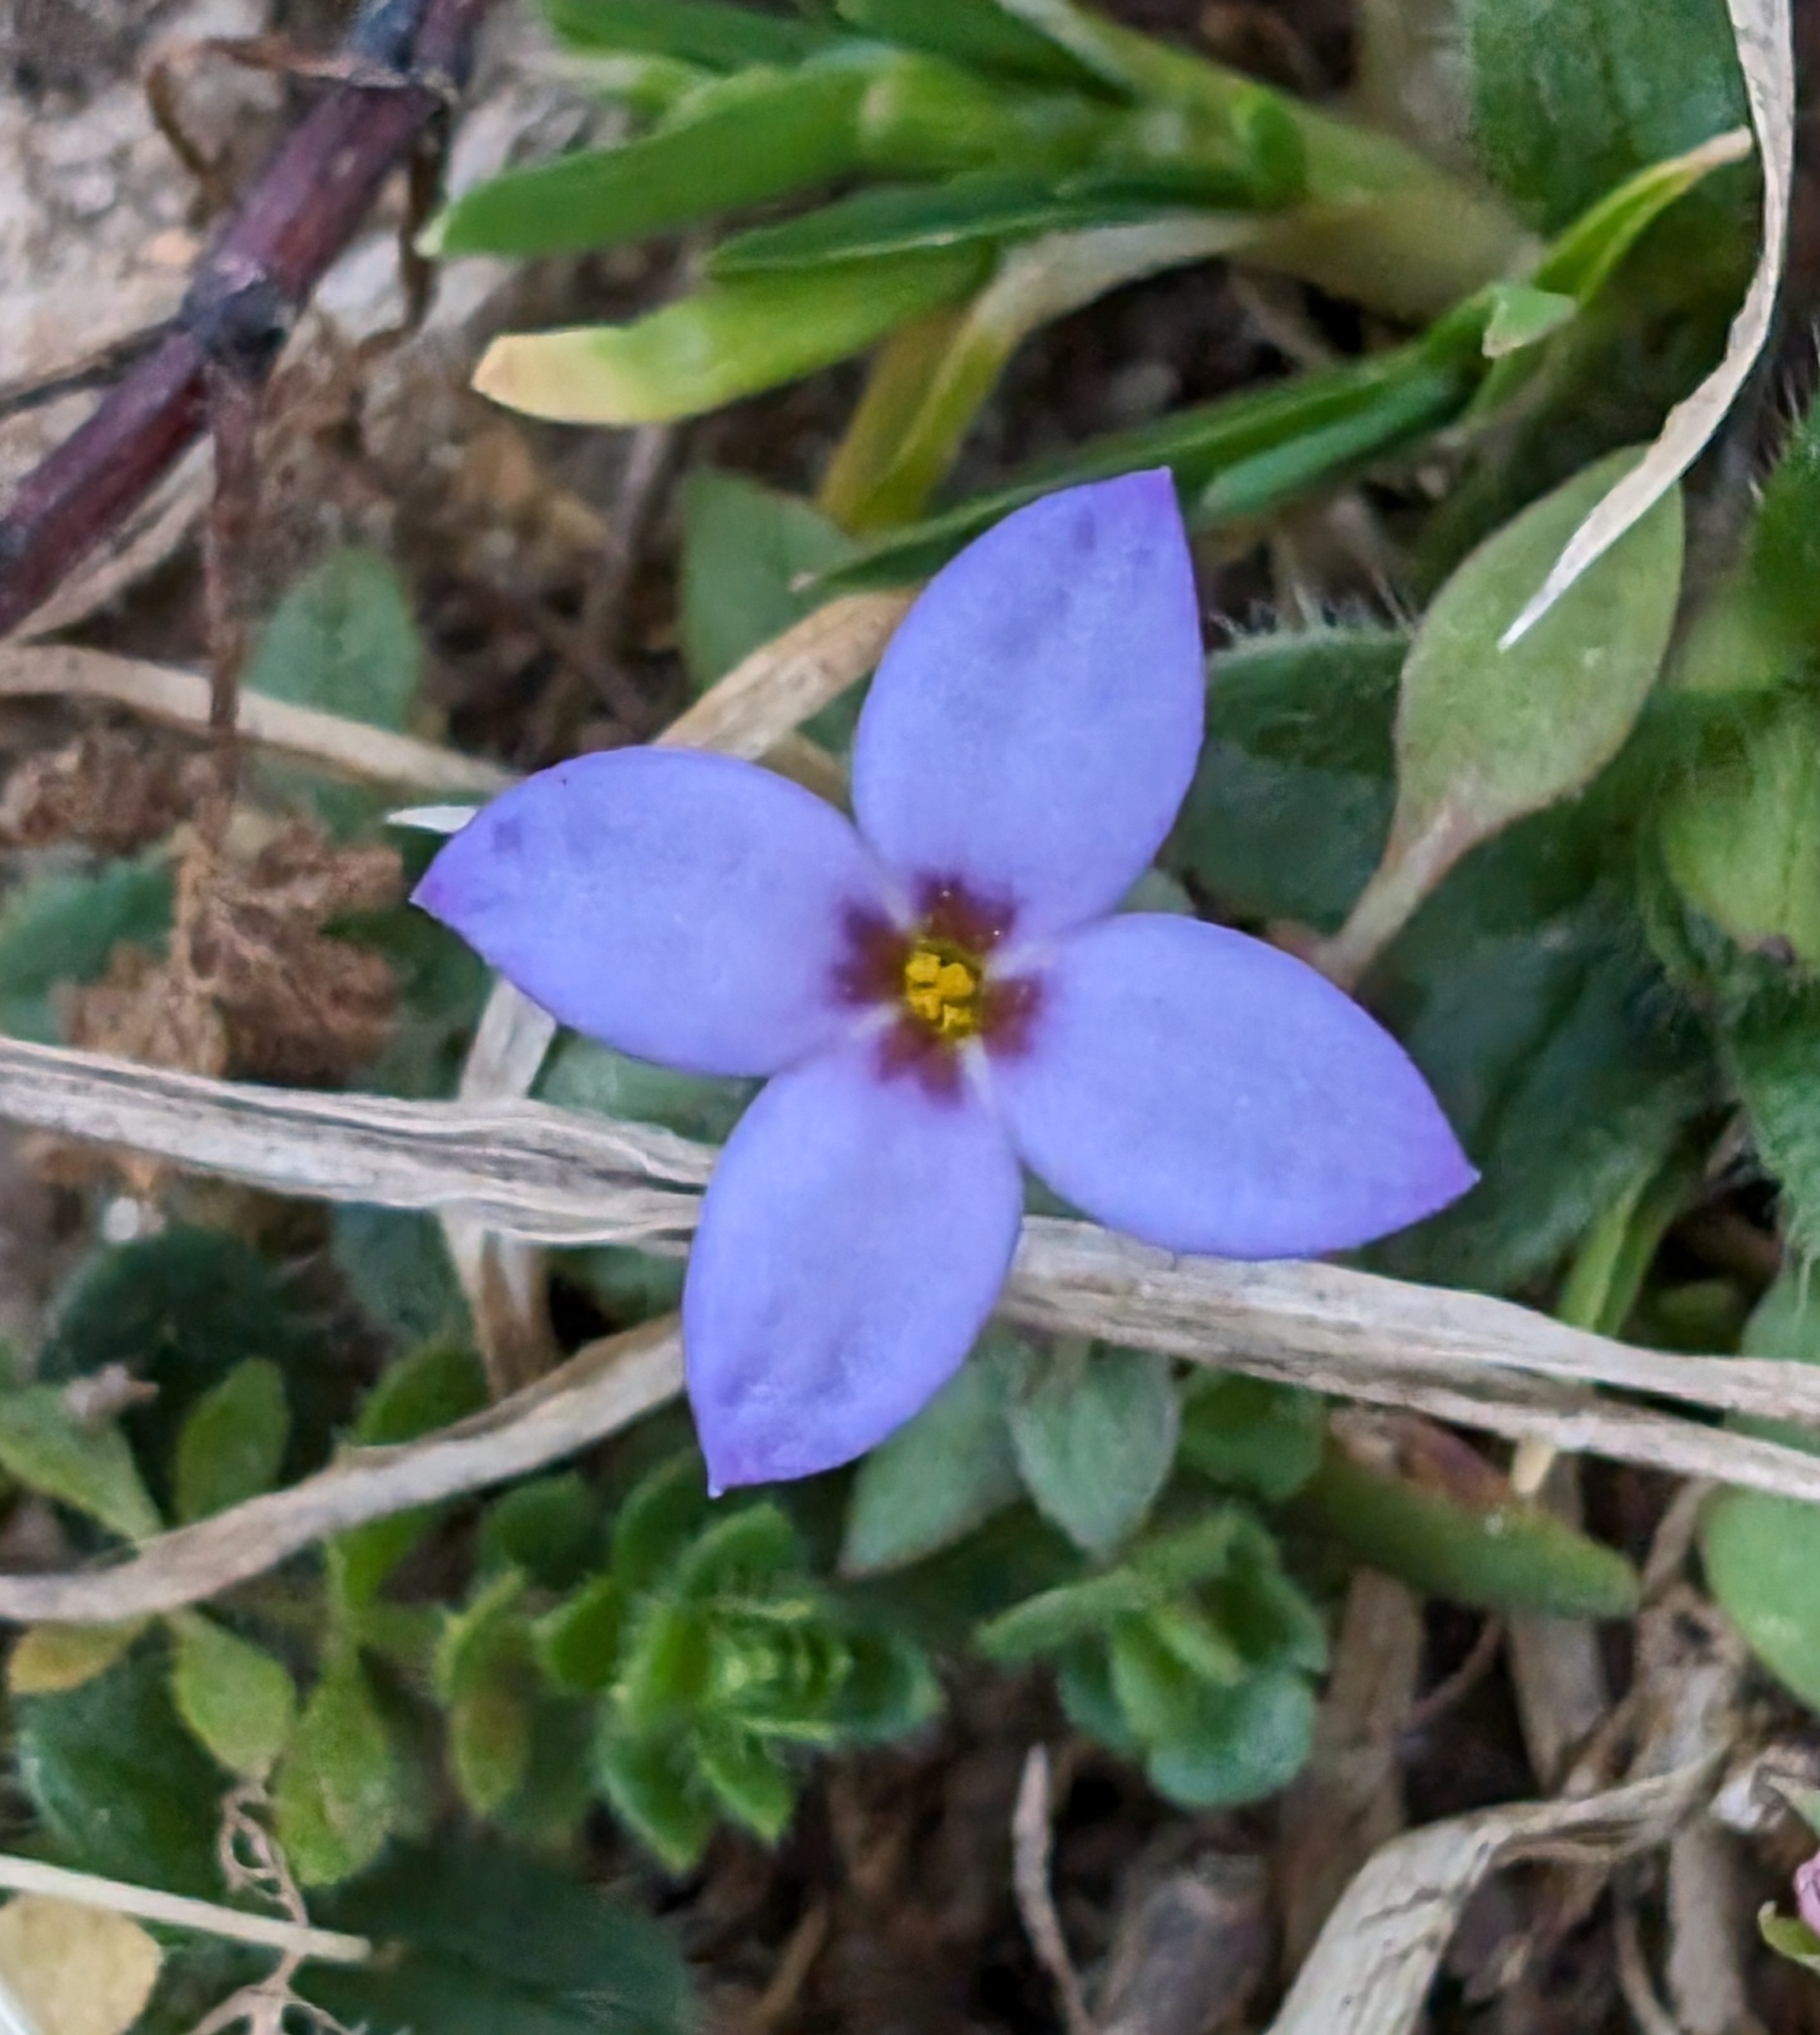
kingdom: Plantae
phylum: Tracheophyta
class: Magnoliopsida
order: Gentianales
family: Rubiaceae
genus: Houstonia
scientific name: Houstonia pusilla
